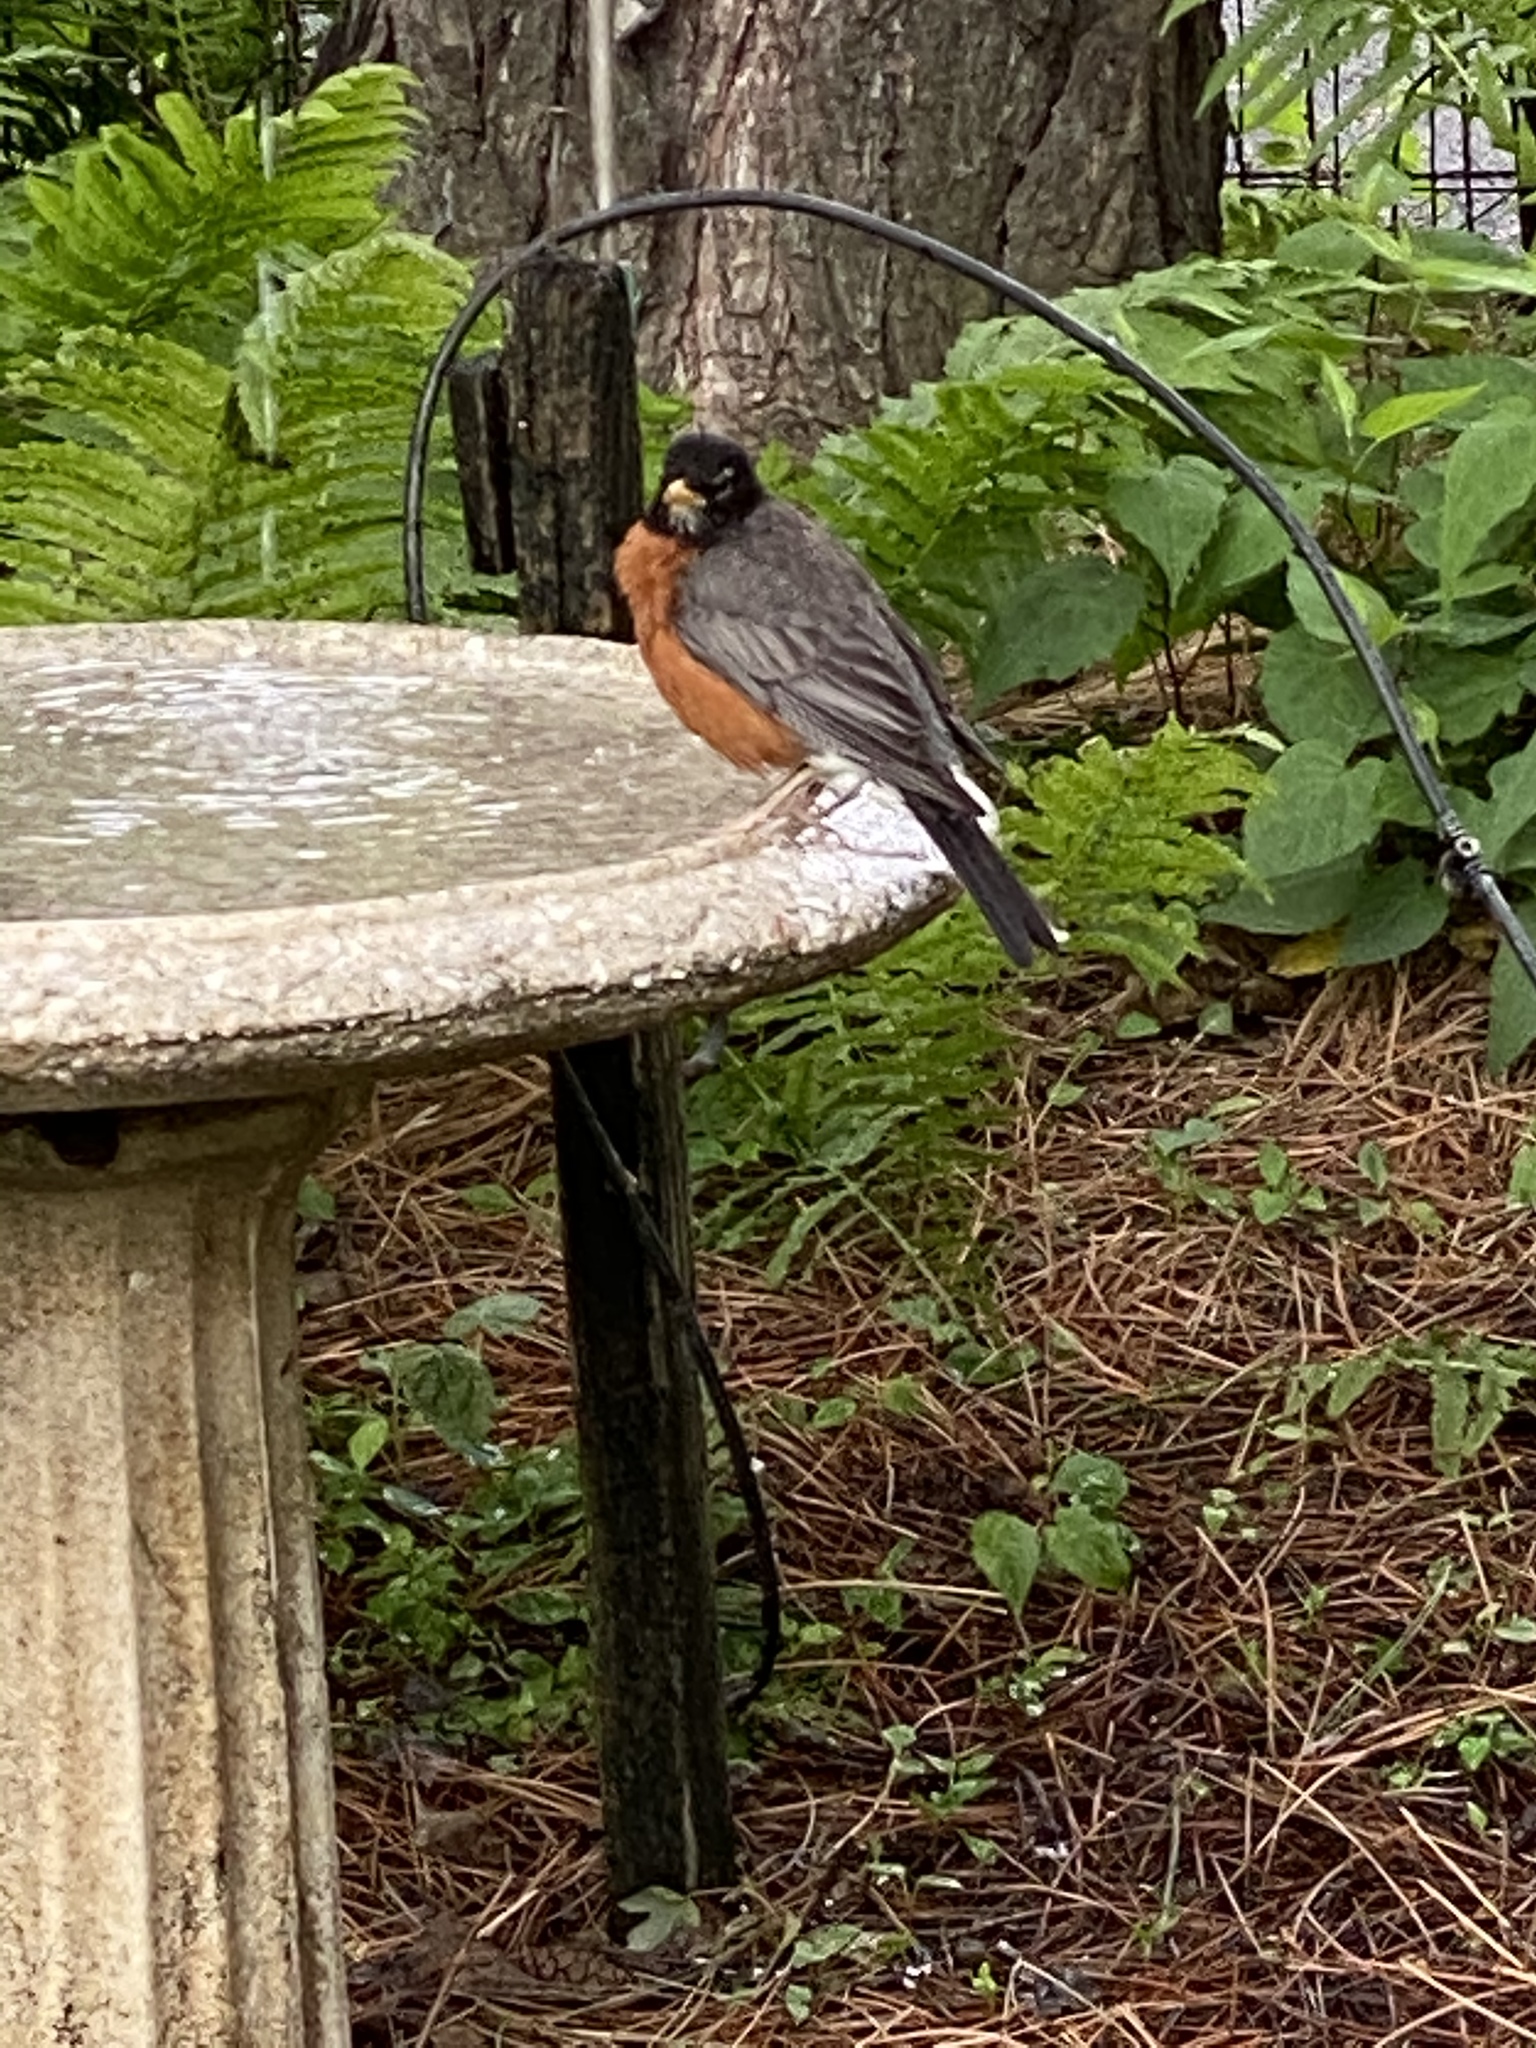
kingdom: Animalia
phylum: Chordata
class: Aves
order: Passeriformes
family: Turdidae
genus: Turdus
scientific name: Turdus migratorius
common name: American robin
